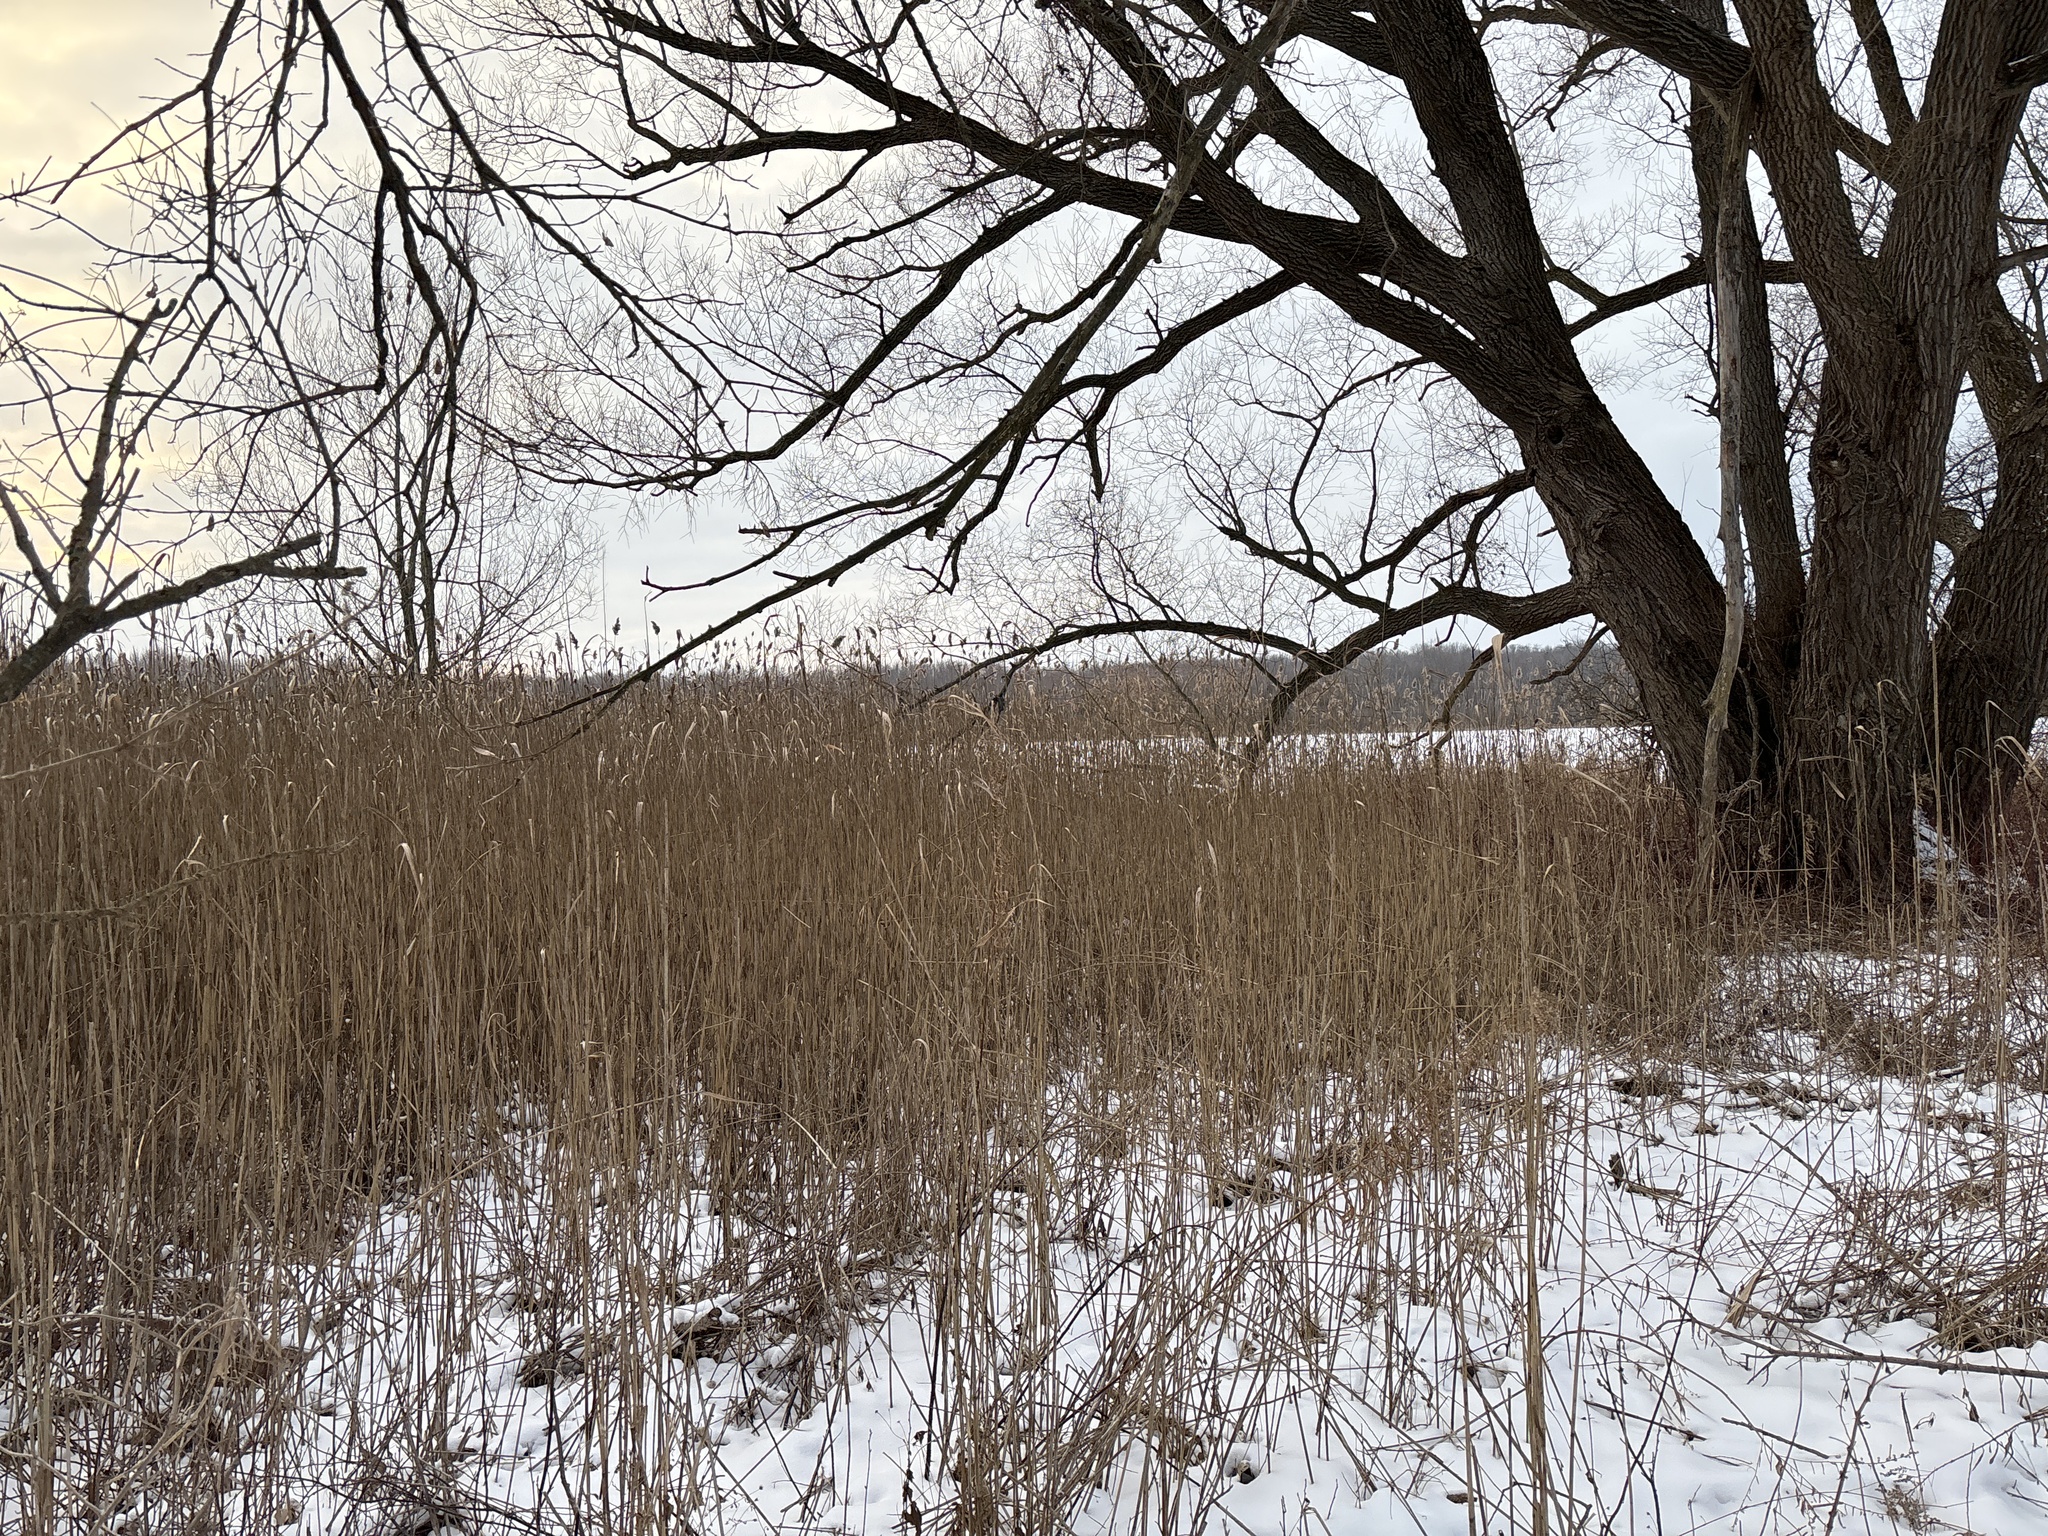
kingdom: Plantae
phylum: Tracheophyta
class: Liliopsida
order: Poales
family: Poaceae
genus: Phragmites
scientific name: Phragmites australis
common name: Common reed
